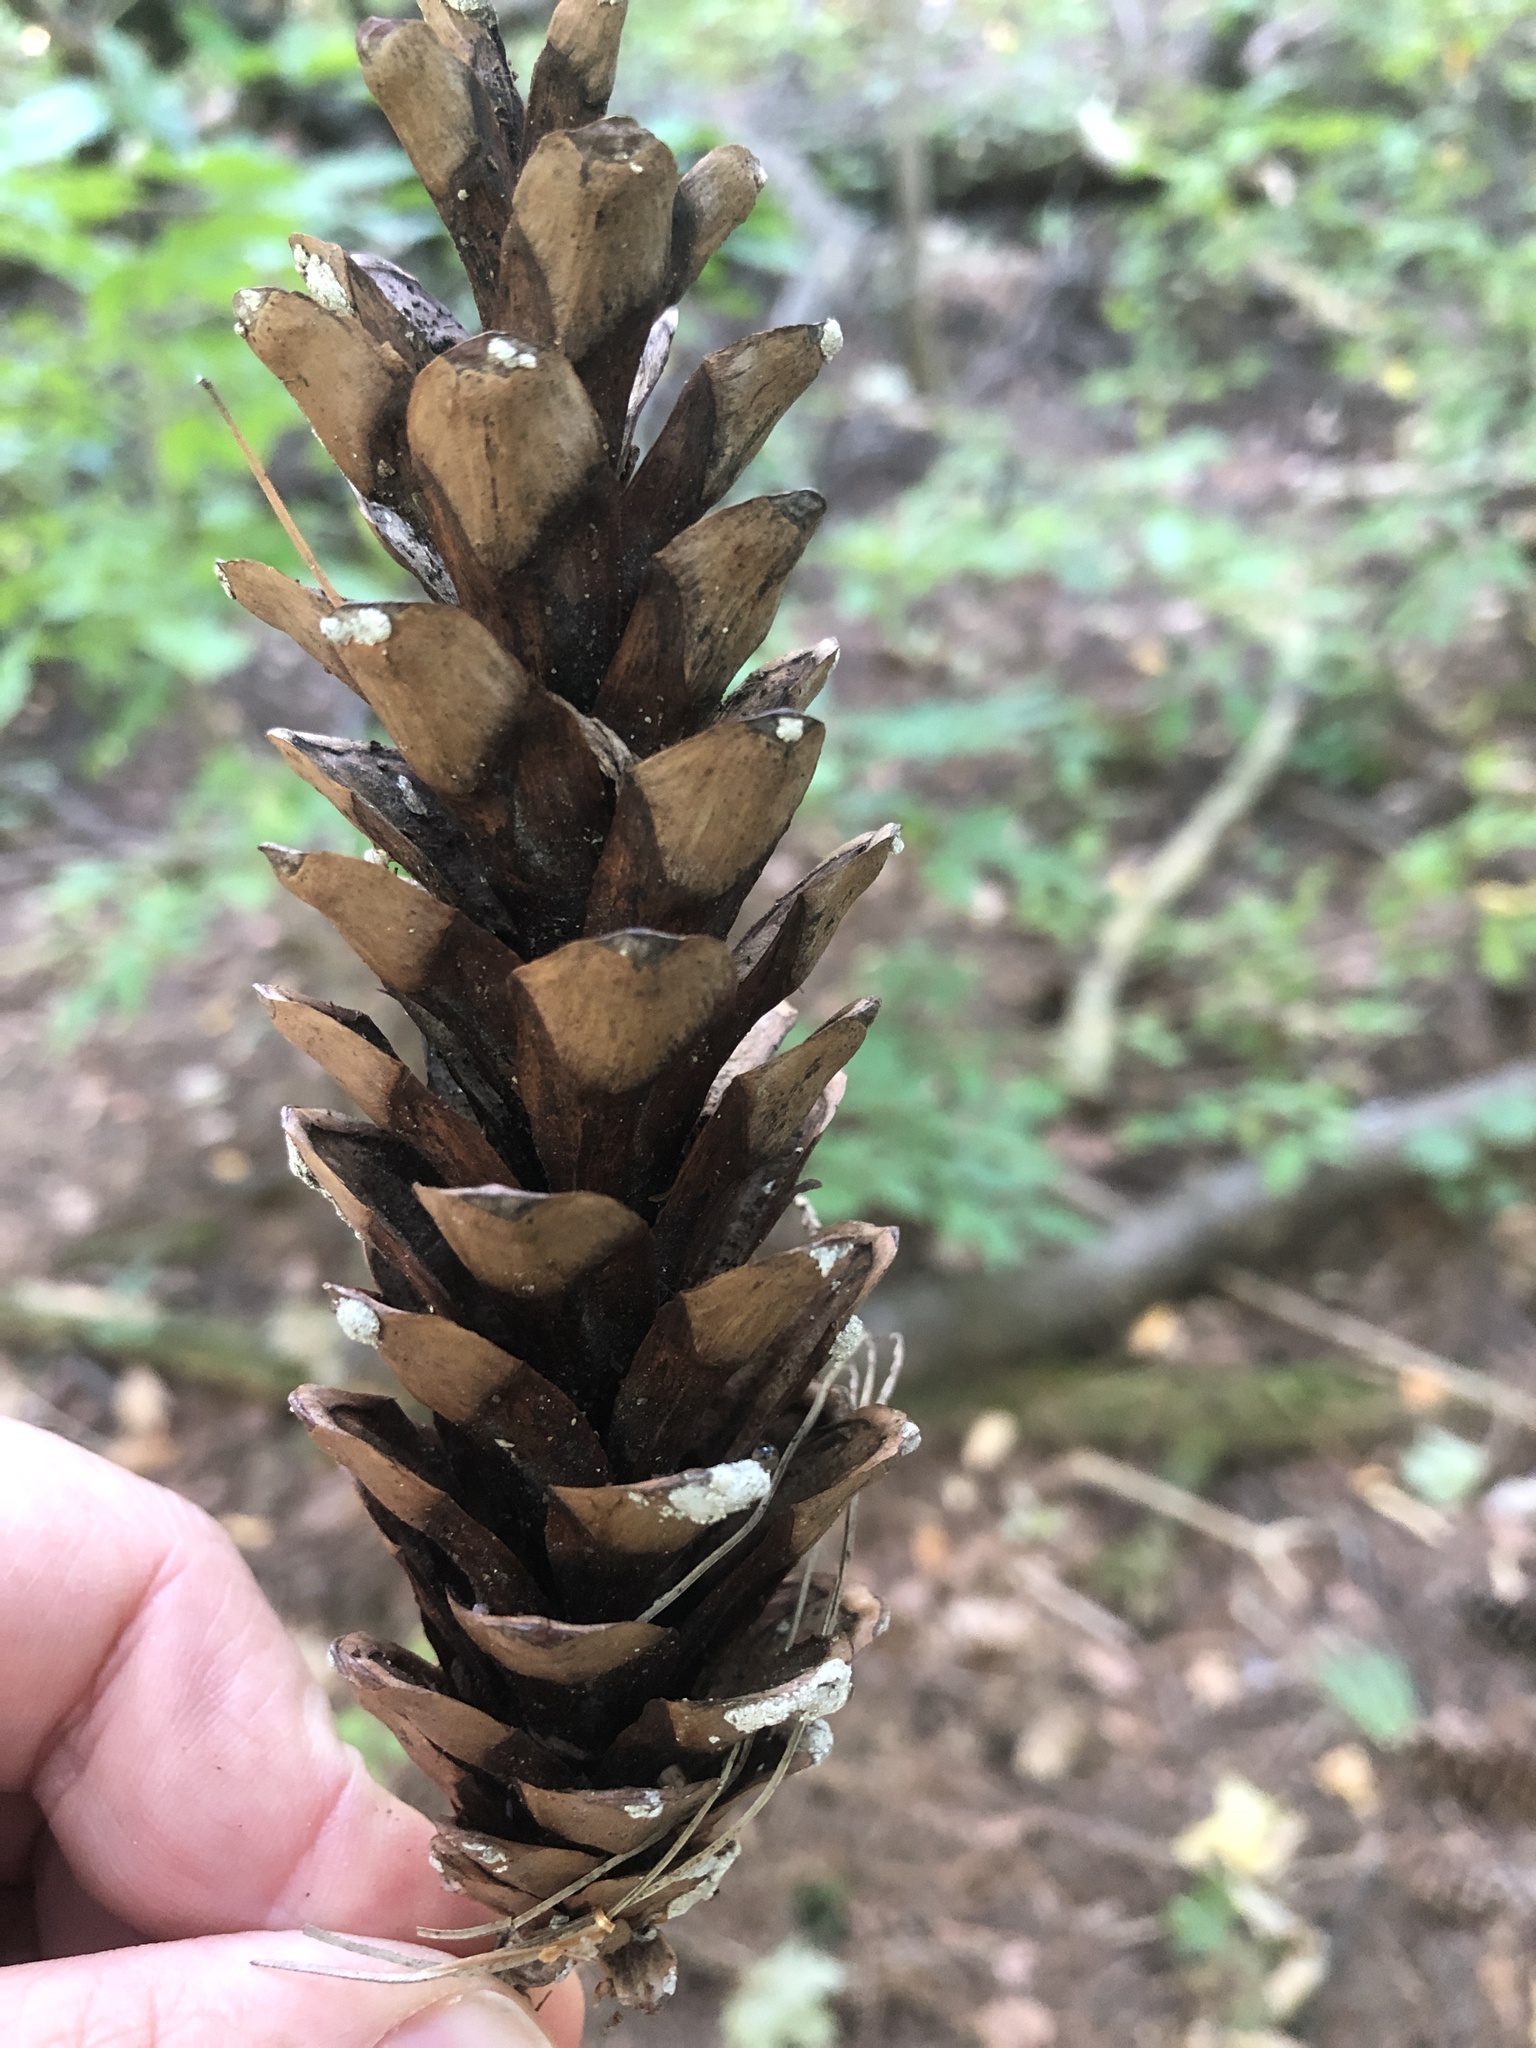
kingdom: Plantae
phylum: Tracheophyta
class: Pinopsida
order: Pinales
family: Pinaceae
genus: Pinus
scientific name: Pinus strobus
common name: Weymouth pine
